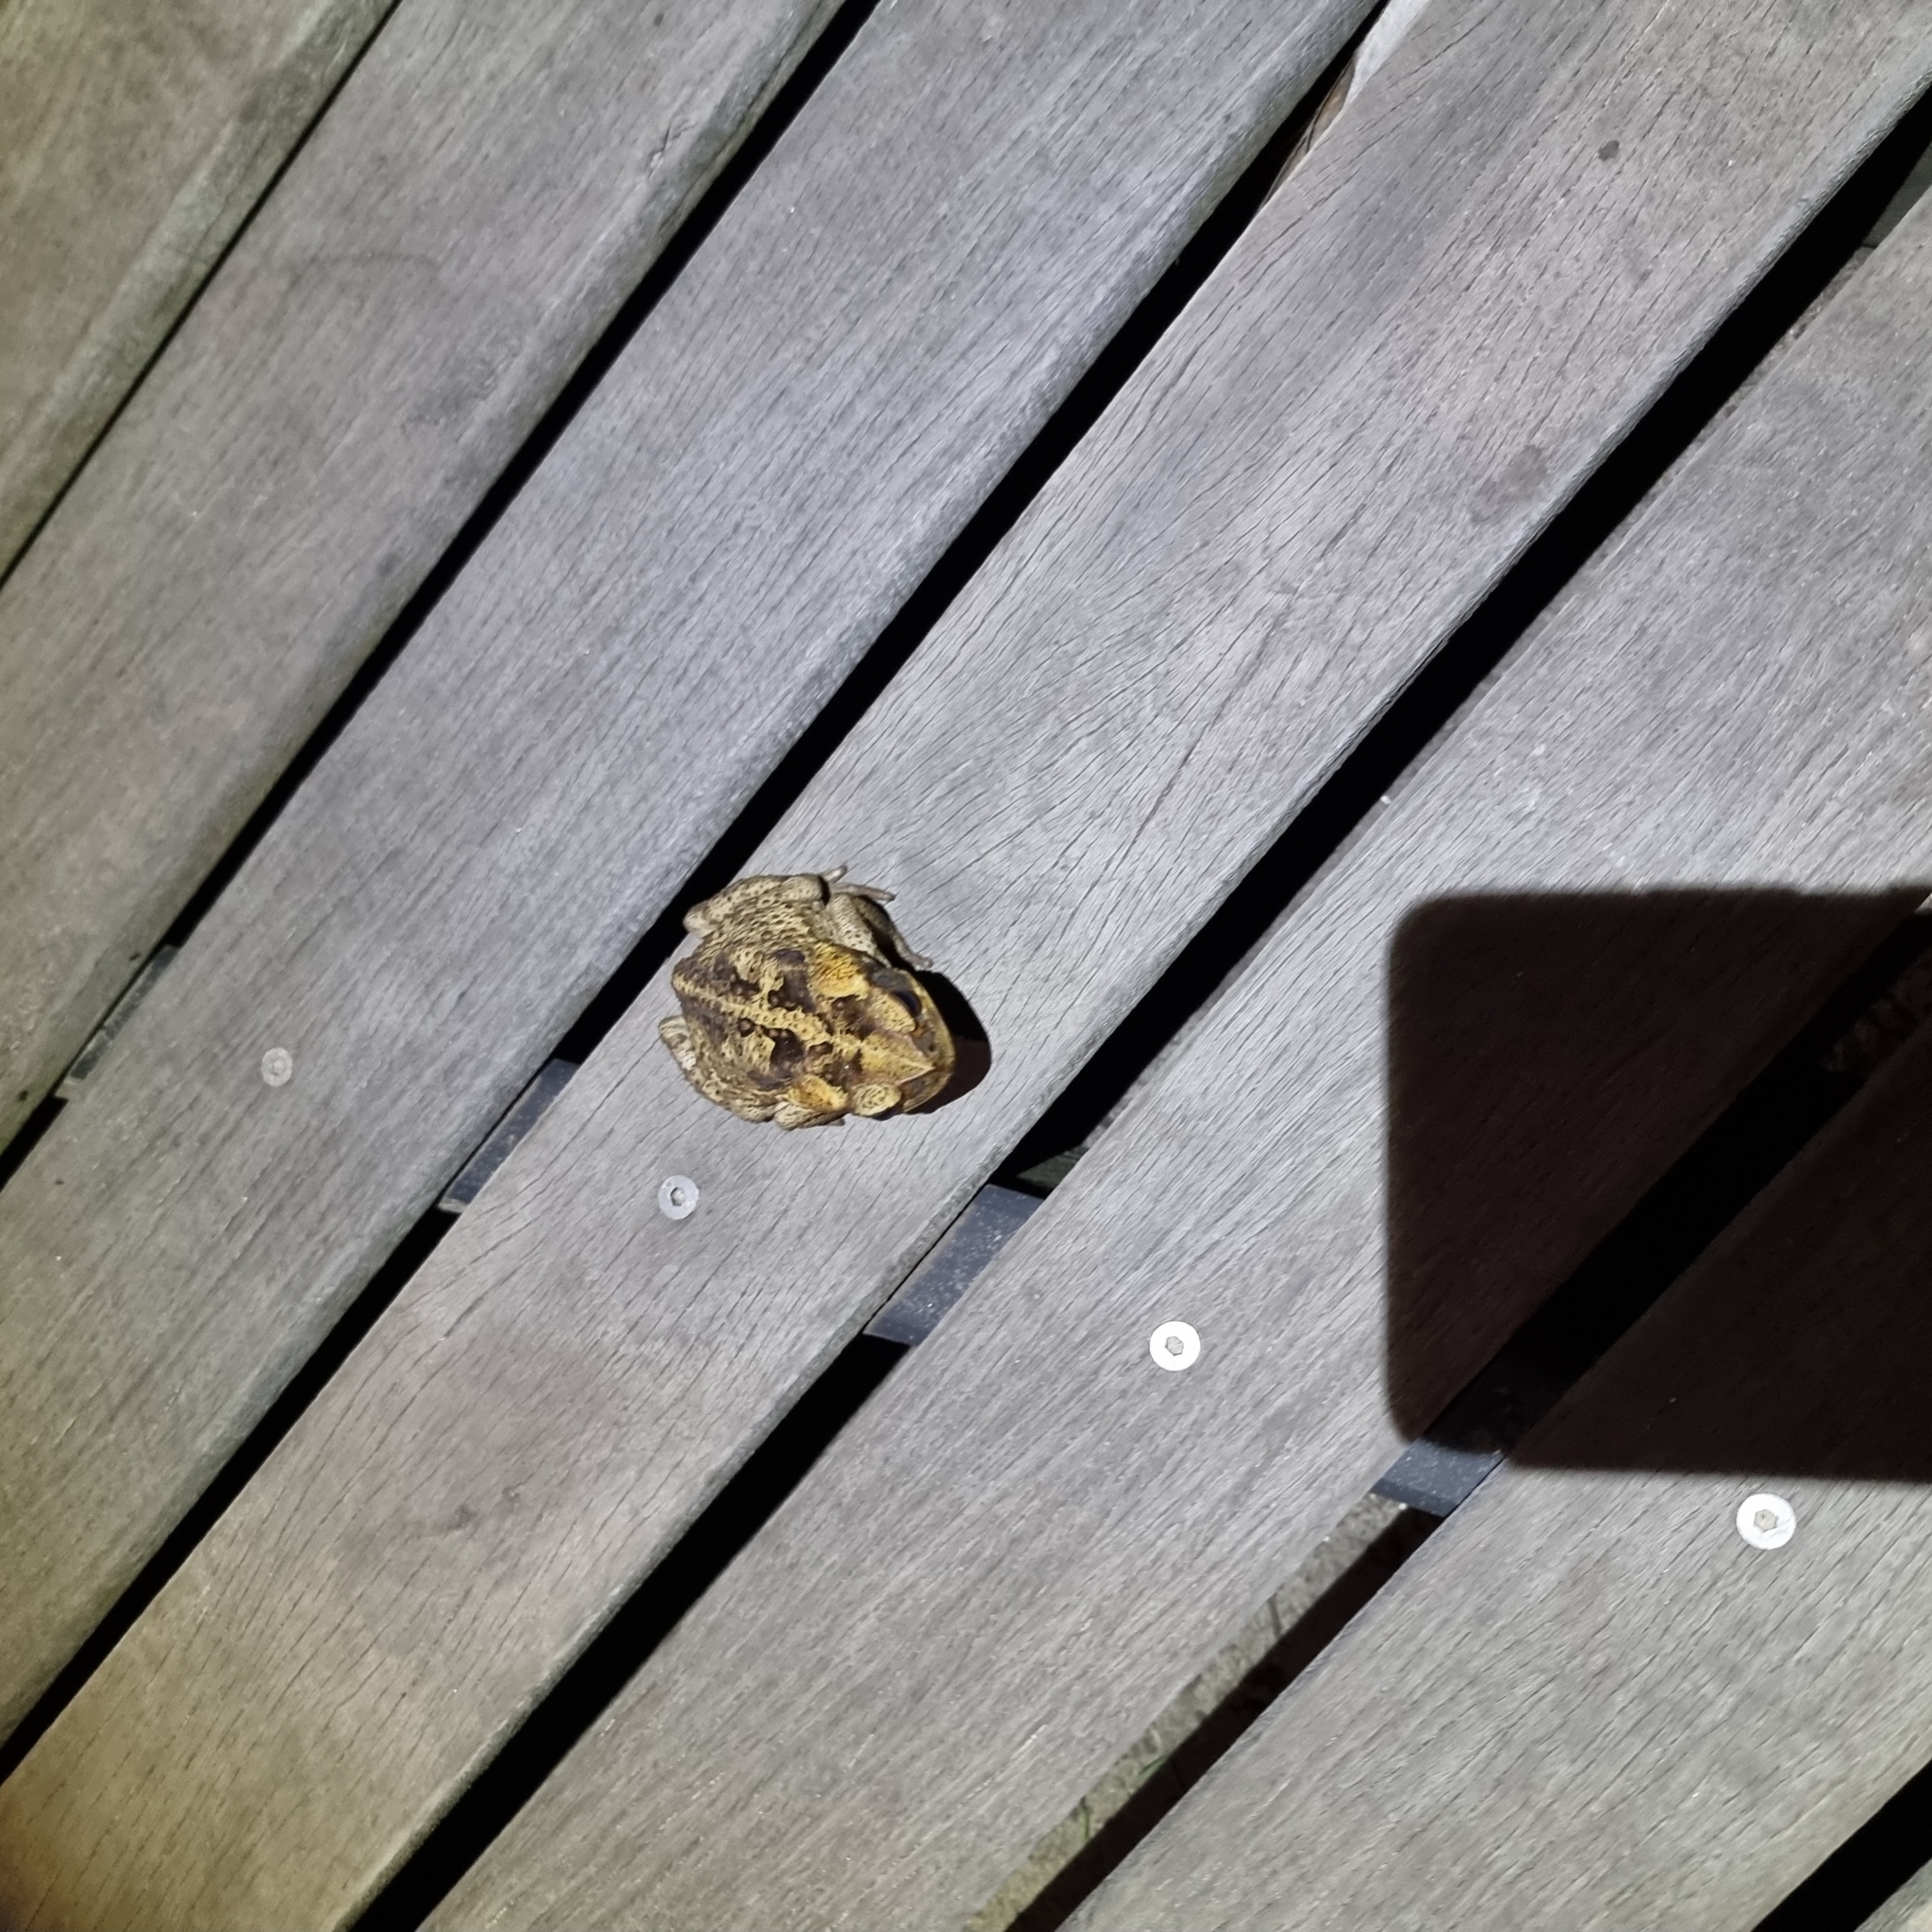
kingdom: Animalia
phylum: Chordata
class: Amphibia
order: Anura
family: Bufonidae
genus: Rhinella
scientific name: Rhinella marina
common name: Cane toad
